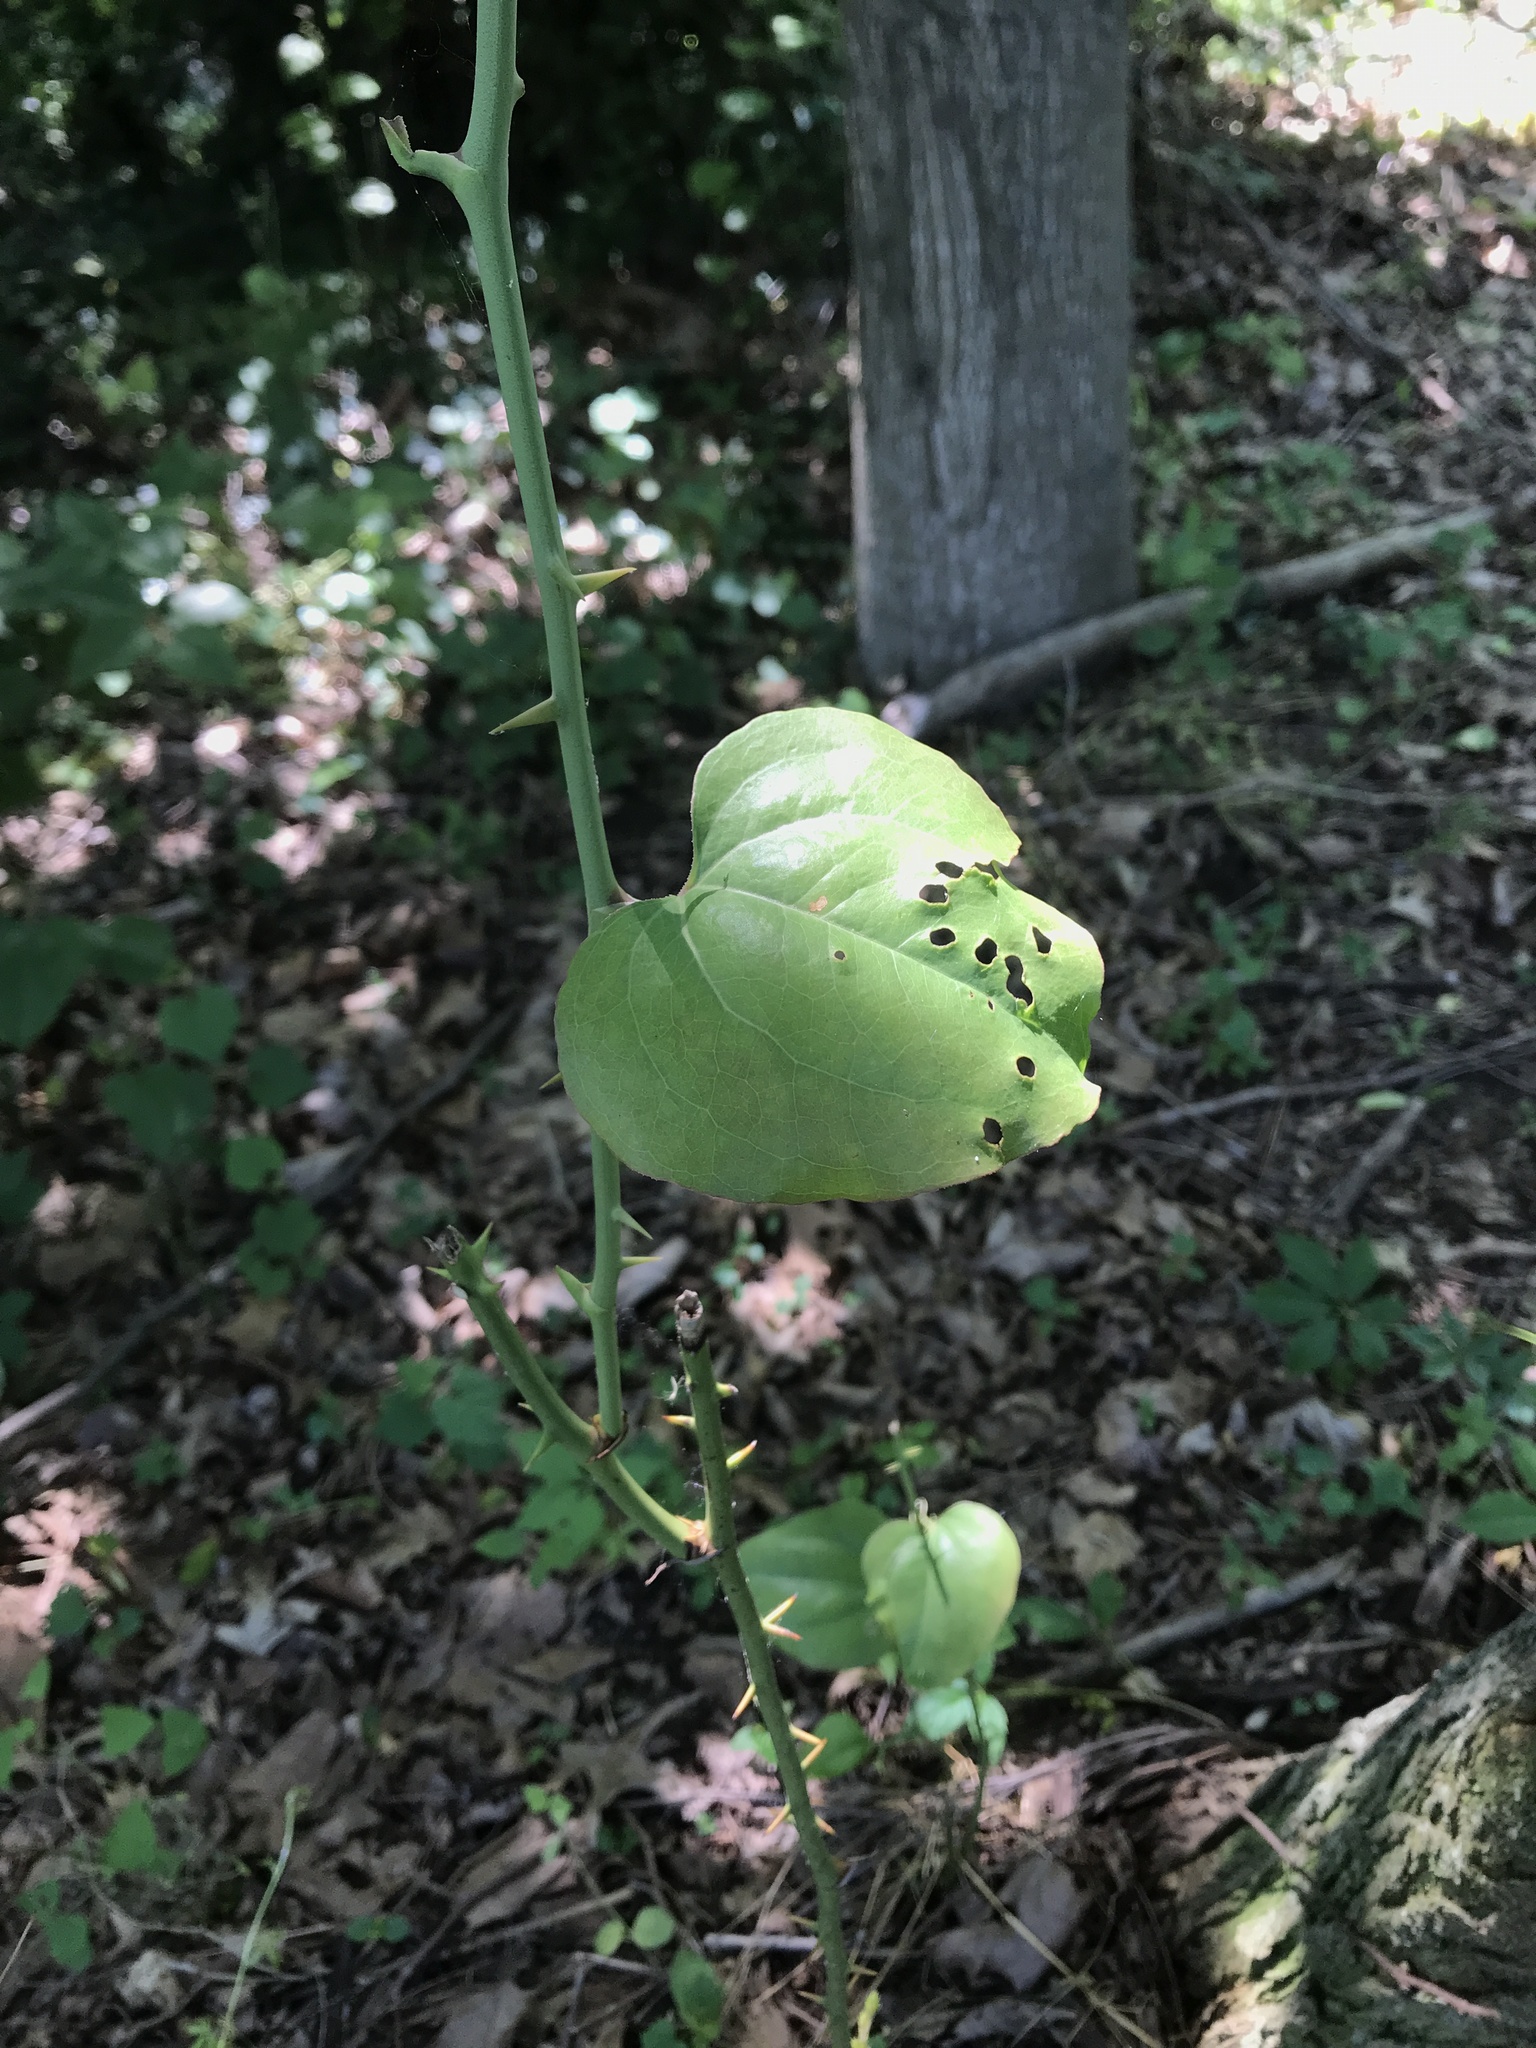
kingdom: Plantae
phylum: Tracheophyta
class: Liliopsida
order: Liliales
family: Smilacaceae
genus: Smilax
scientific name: Smilax rotundifolia
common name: Bullbriar
